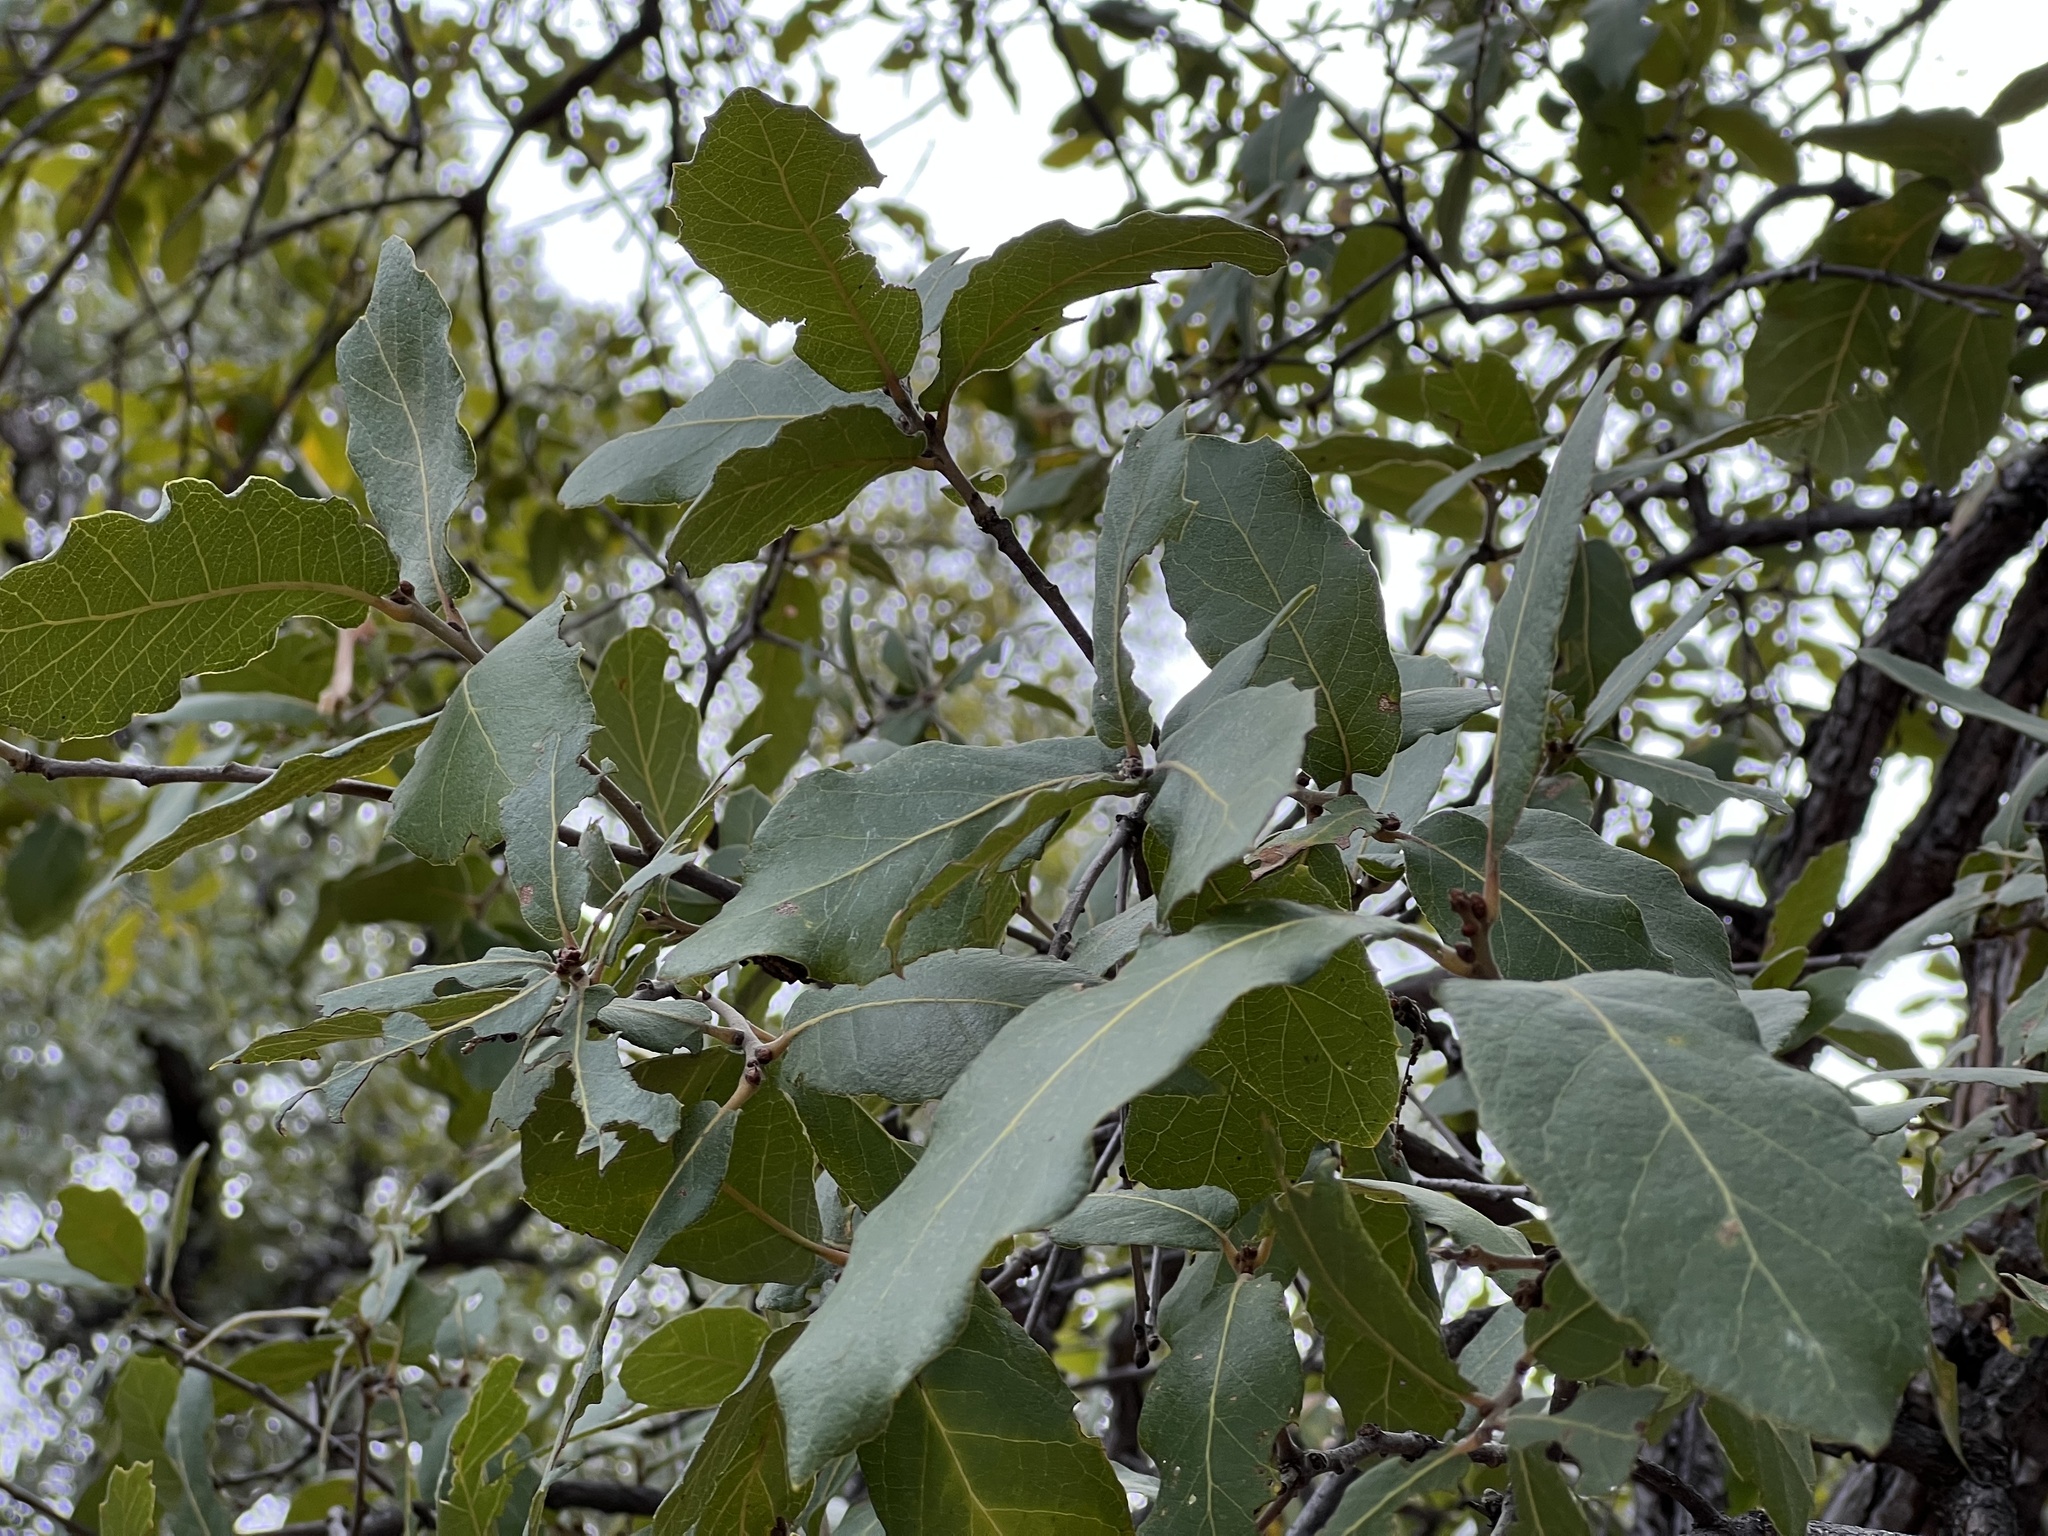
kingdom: Plantae
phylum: Tracheophyta
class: Magnoliopsida
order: Fagales
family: Fagaceae
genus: Quercus
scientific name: Quercus arizonica
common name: Arizona white oak
